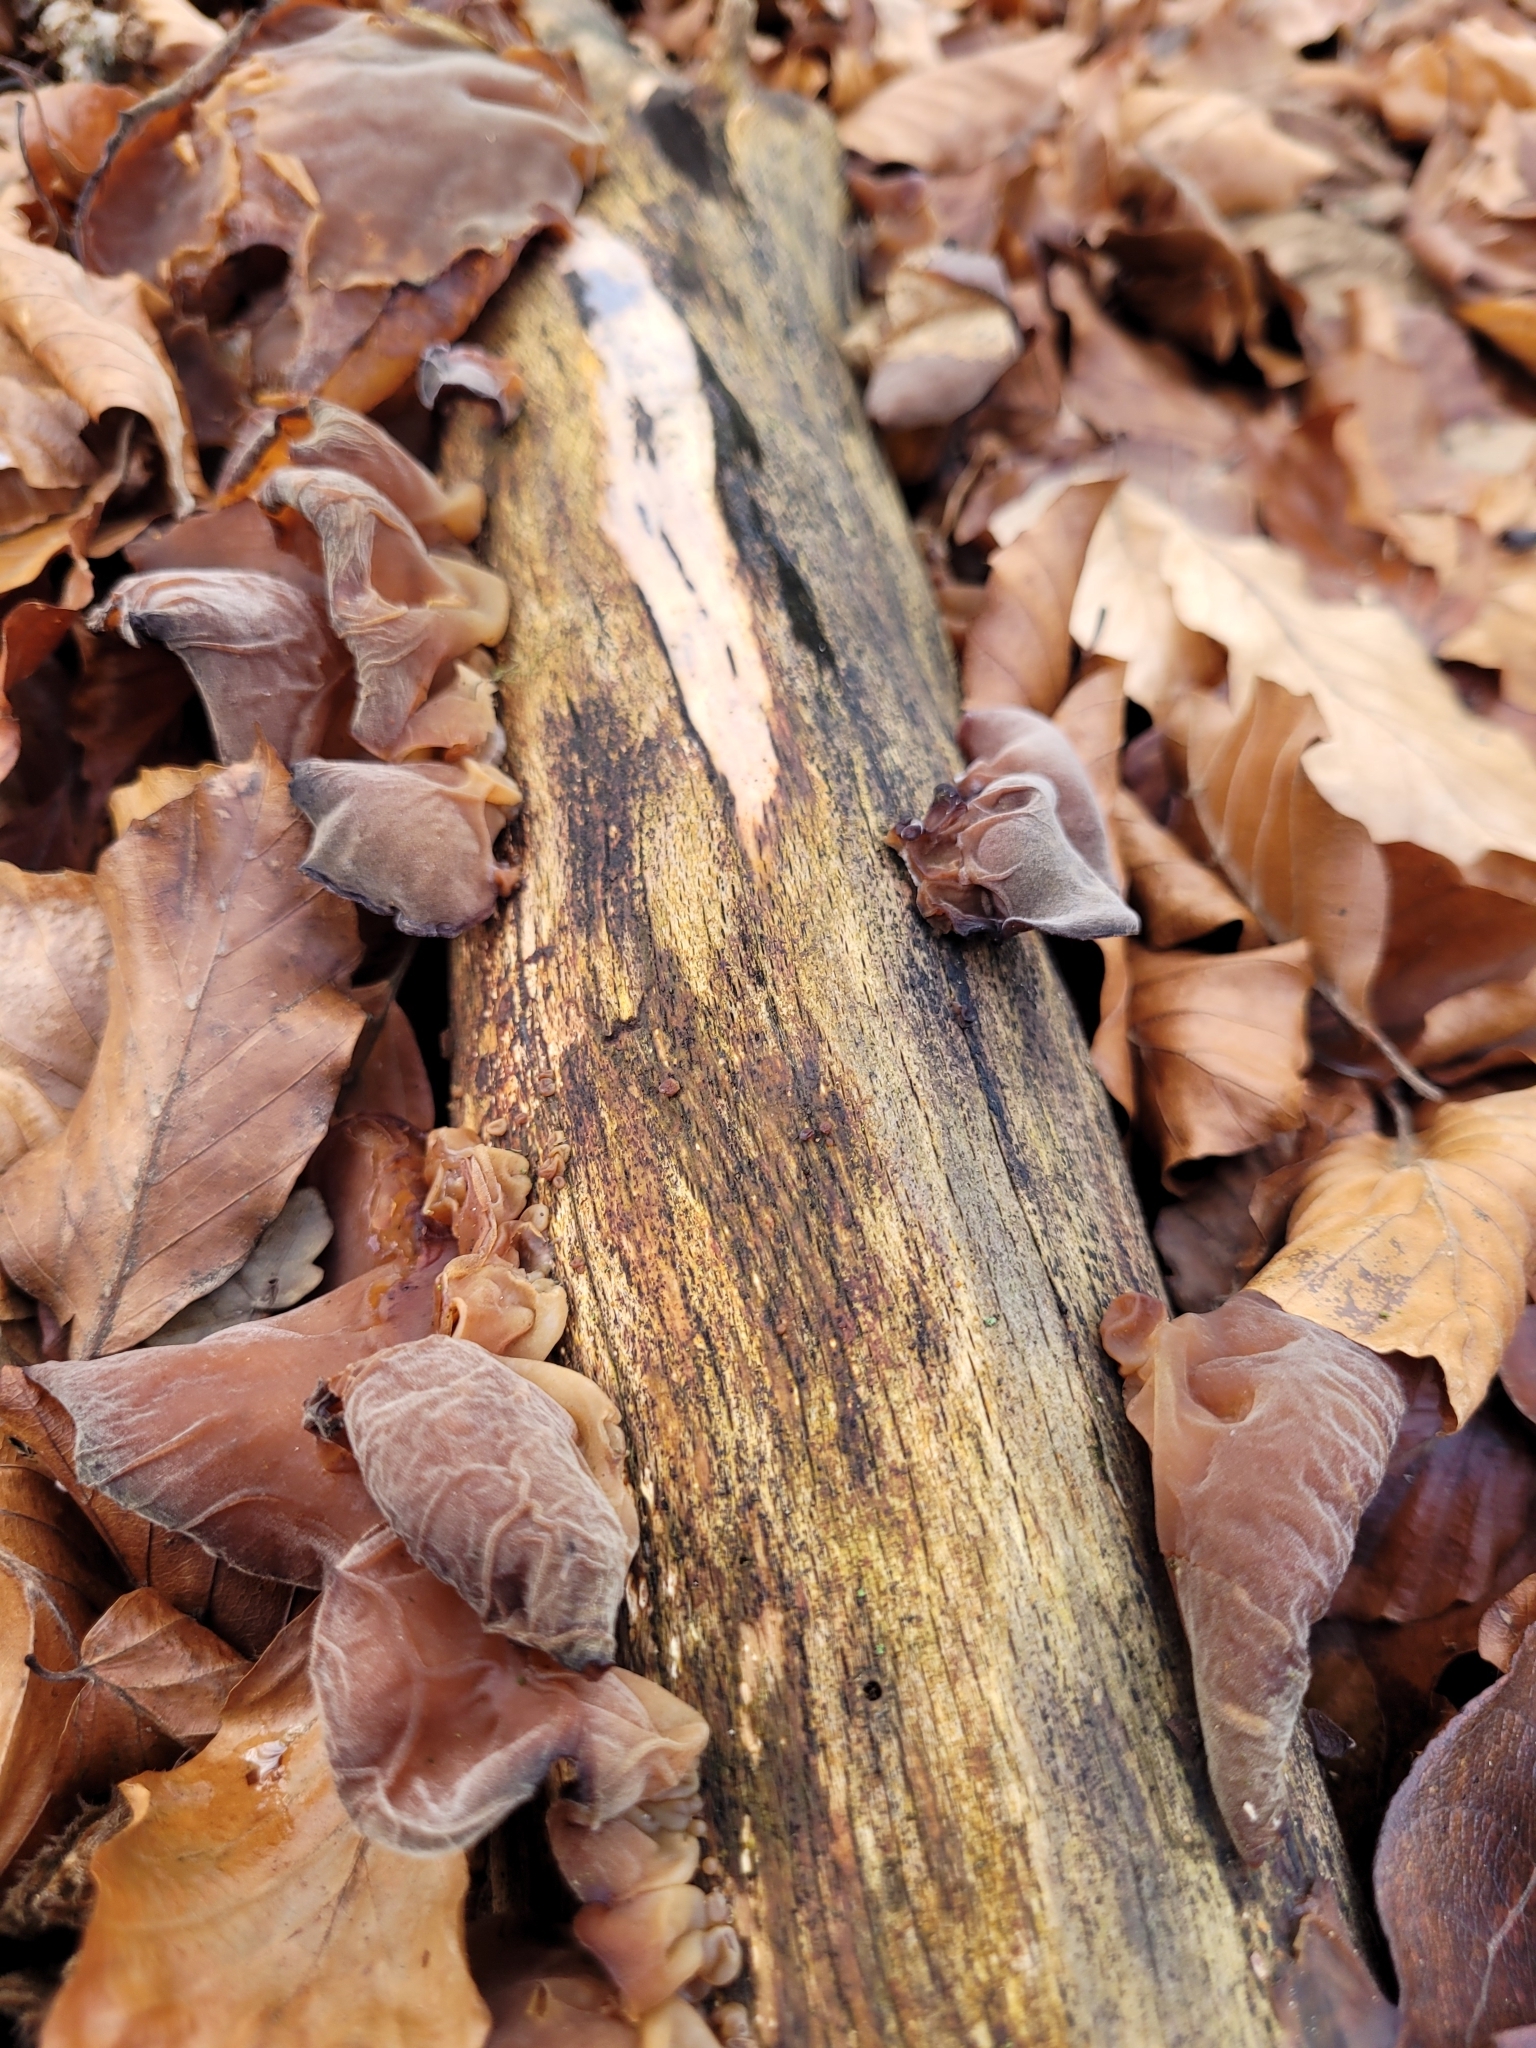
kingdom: Fungi
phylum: Basidiomycota
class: Agaricomycetes
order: Auriculariales
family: Auriculariaceae
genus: Auricularia
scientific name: Auricularia auricula-judae
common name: Jelly ear
